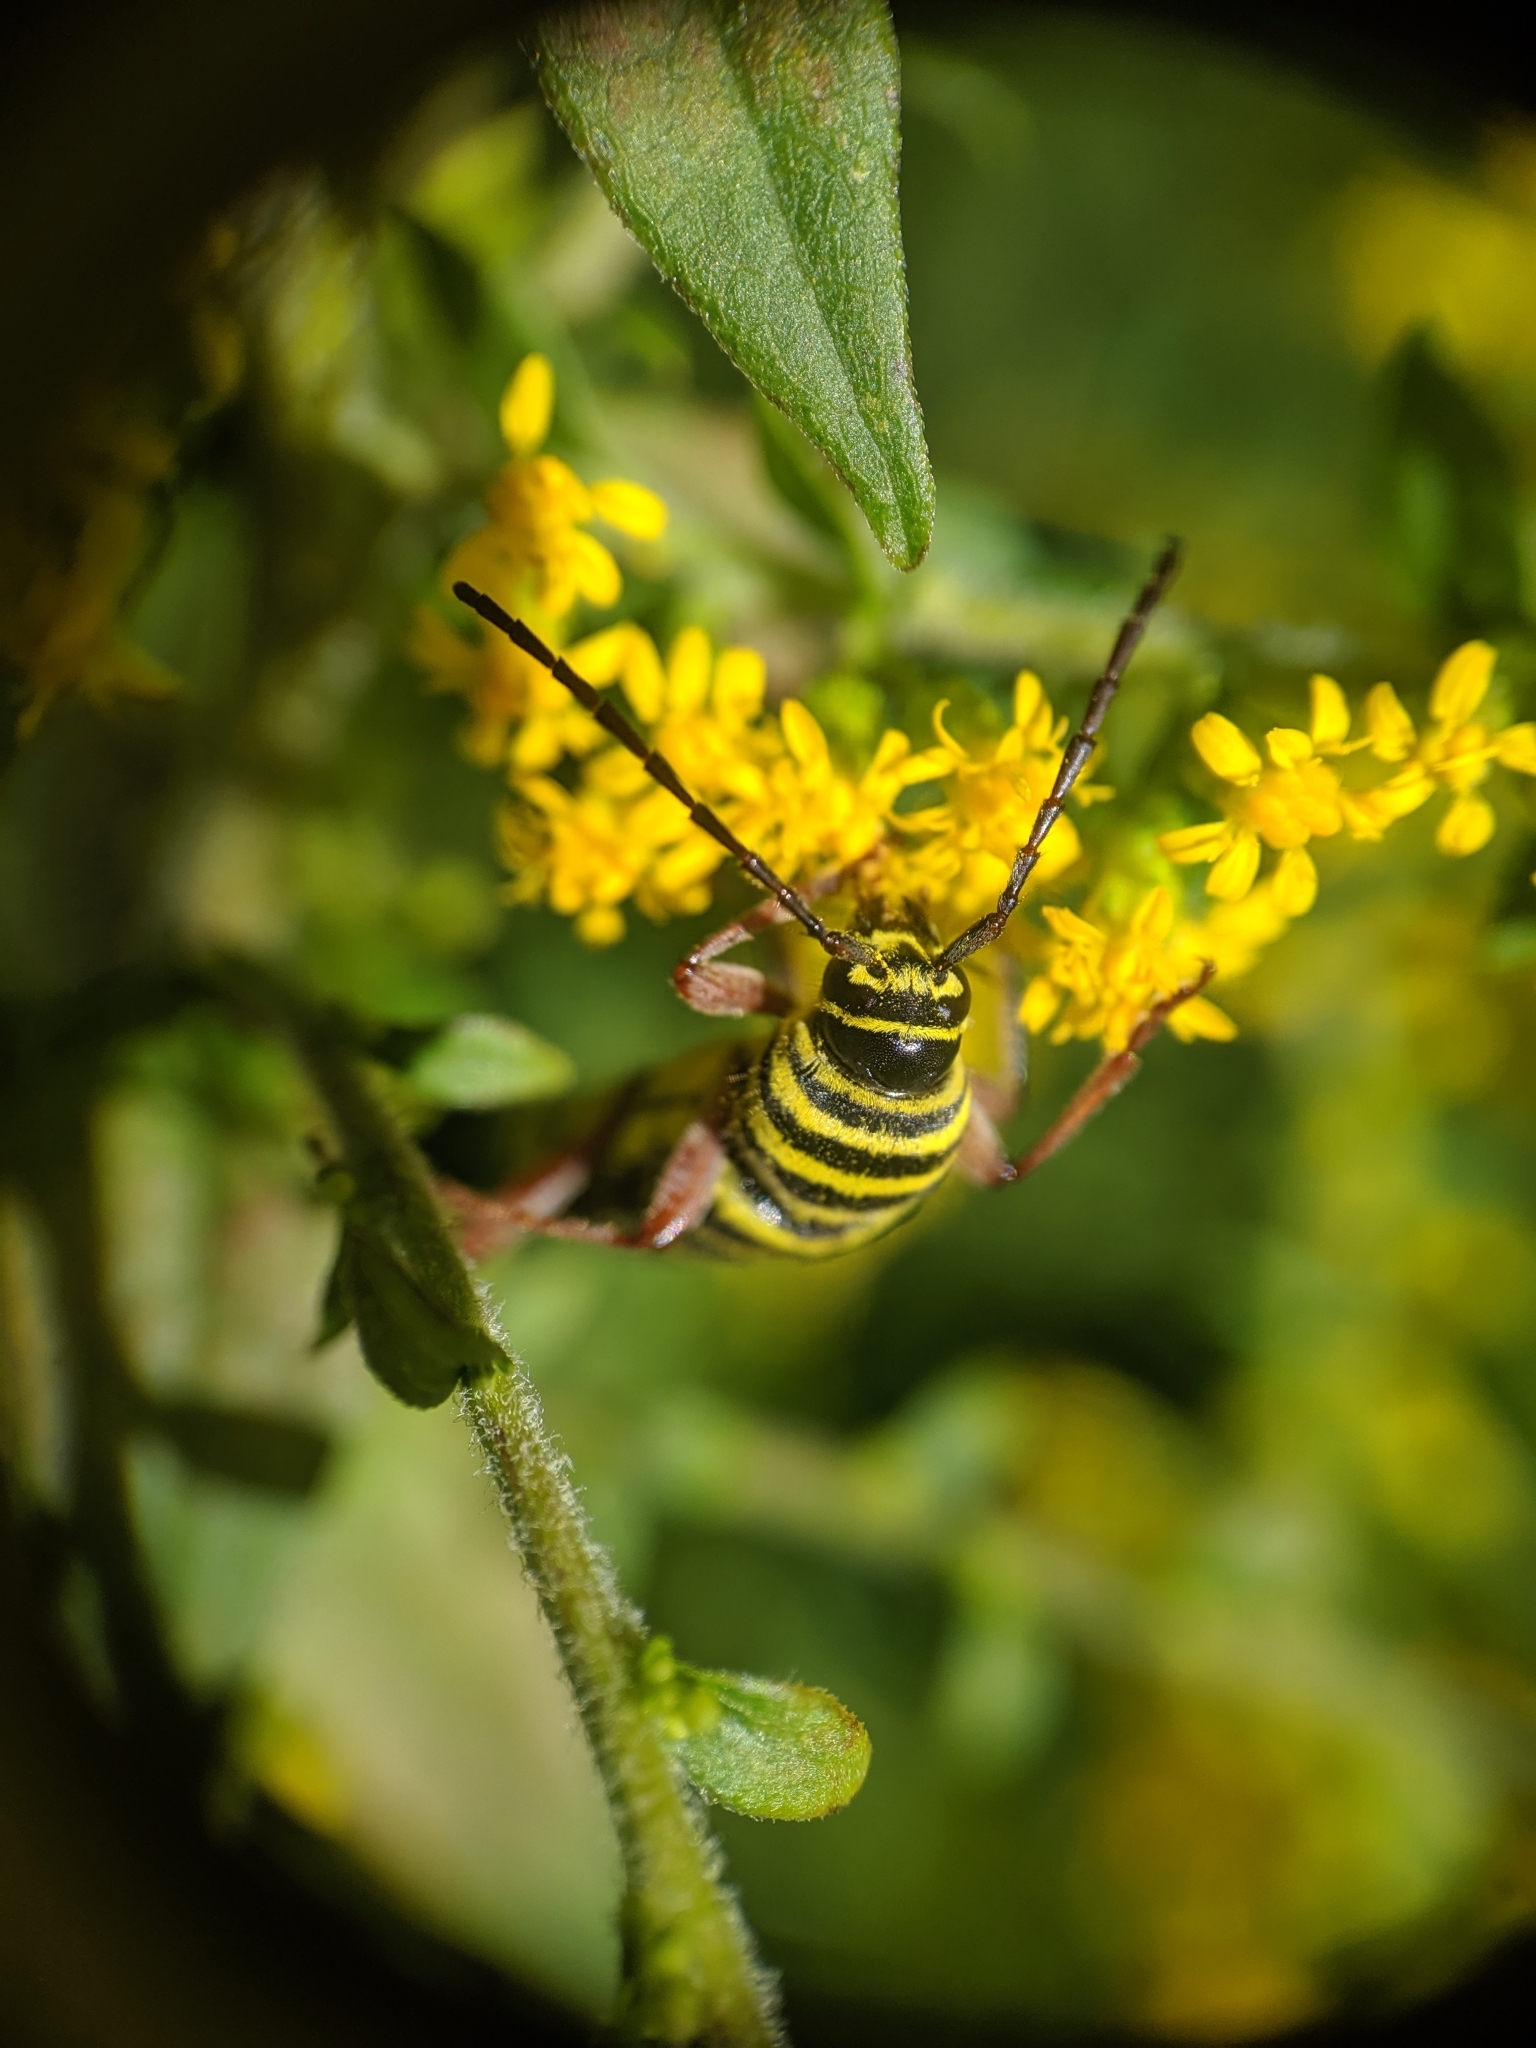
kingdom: Animalia
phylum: Arthropoda
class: Insecta
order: Coleoptera
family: Cerambycidae
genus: Megacyllene
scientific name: Megacyllene robiniae
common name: Locust borer
